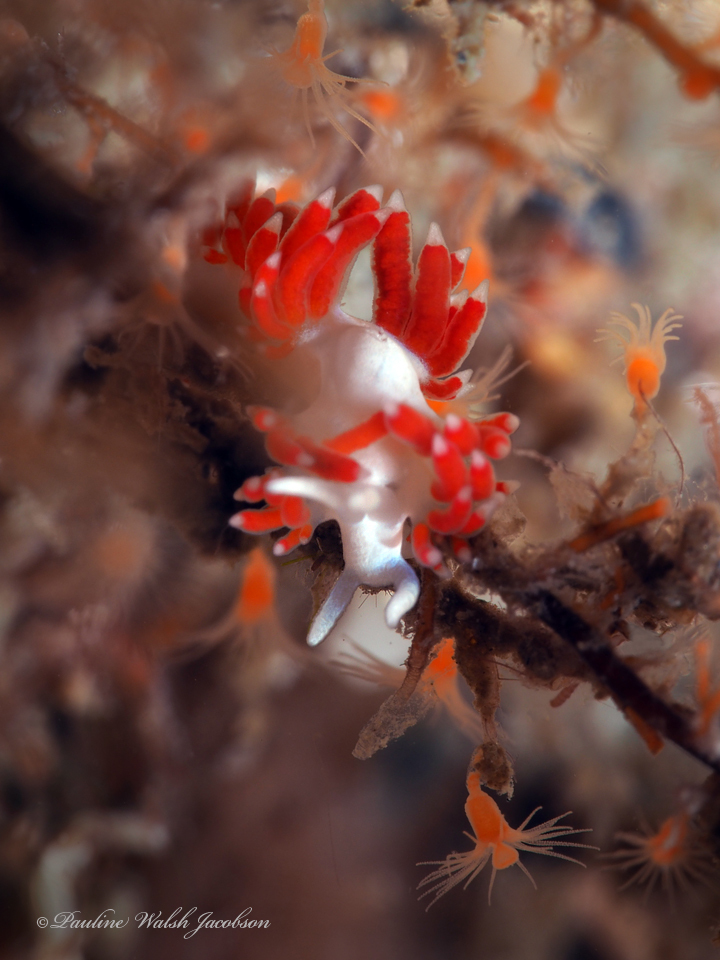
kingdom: Animalia
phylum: Mollusca
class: Gastropoda
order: Nudibranchia
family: Flabellinidae
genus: Flabellina
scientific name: Flabellina dushia
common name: Dushia flabellina
